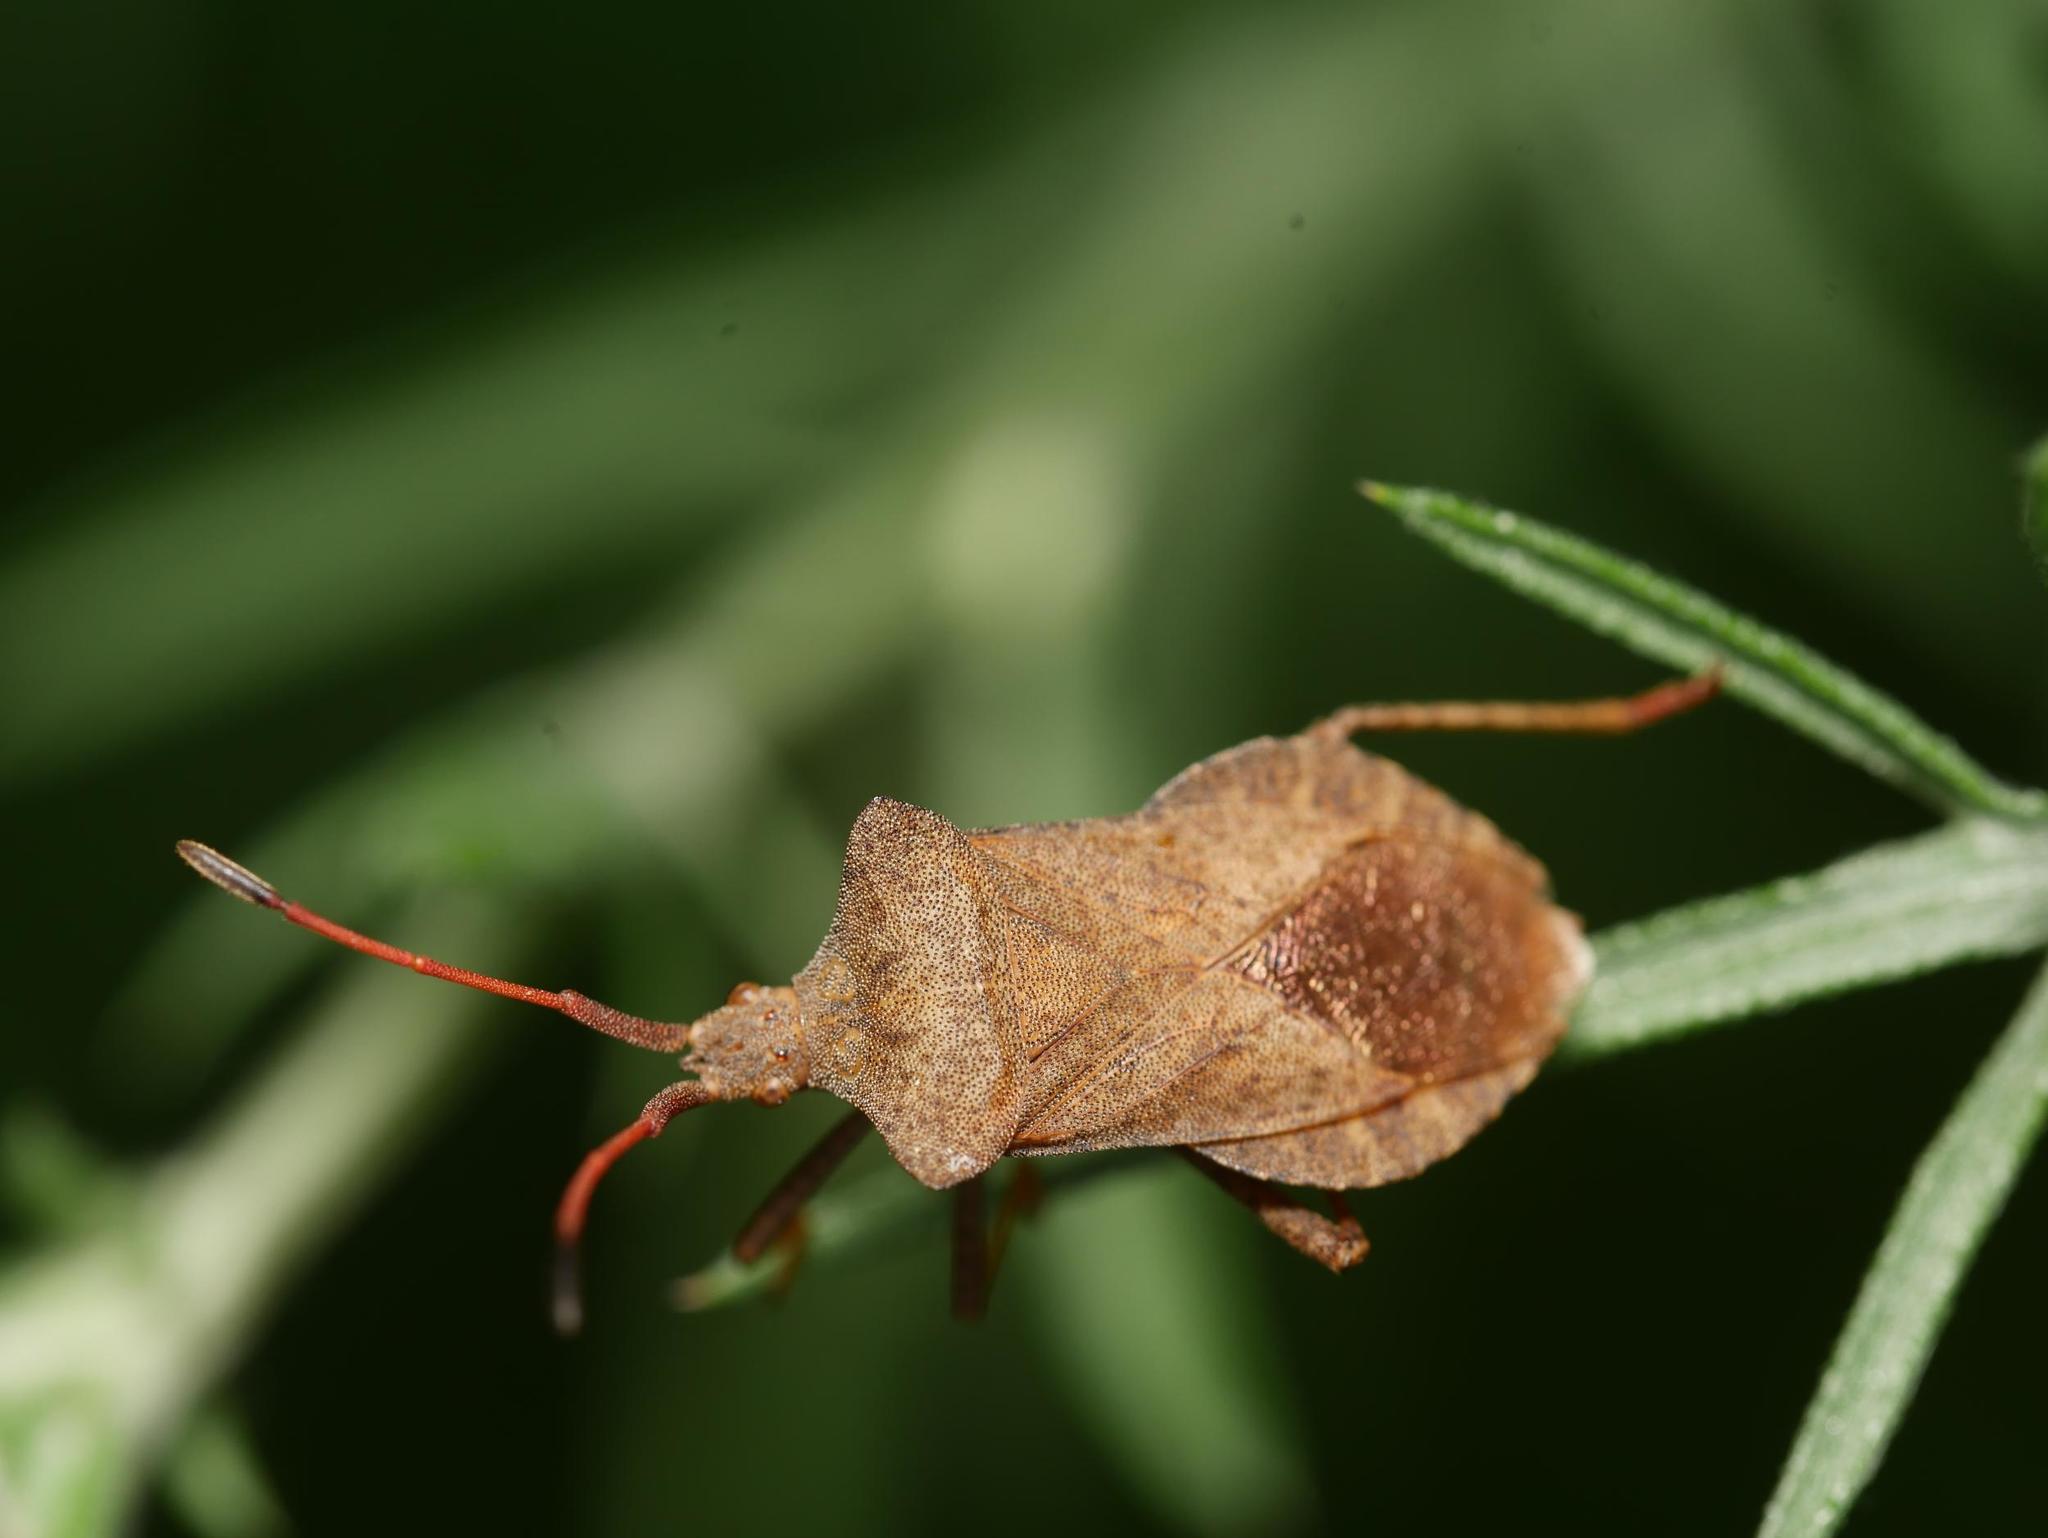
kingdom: Animalia
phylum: Arthropoda
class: Insecta
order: Hemiptera
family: Coreidae
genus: Coreus
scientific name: Coreus marginatus
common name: Dock bug
